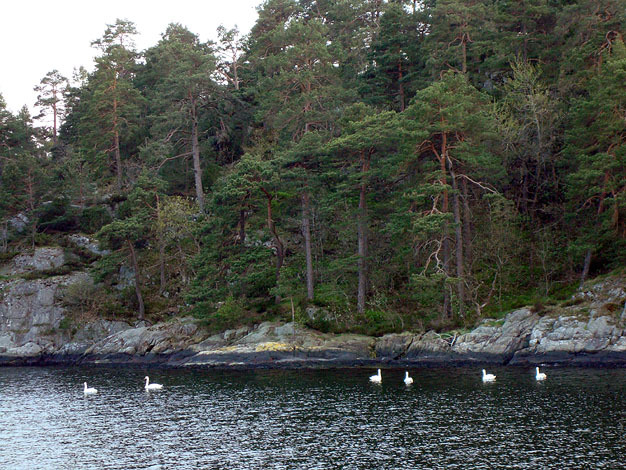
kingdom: Animalia
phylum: Chordata
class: Aves
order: Anseriformes
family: Anatidae
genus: Cygnus
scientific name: Cygnus olor
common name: Mute swan
